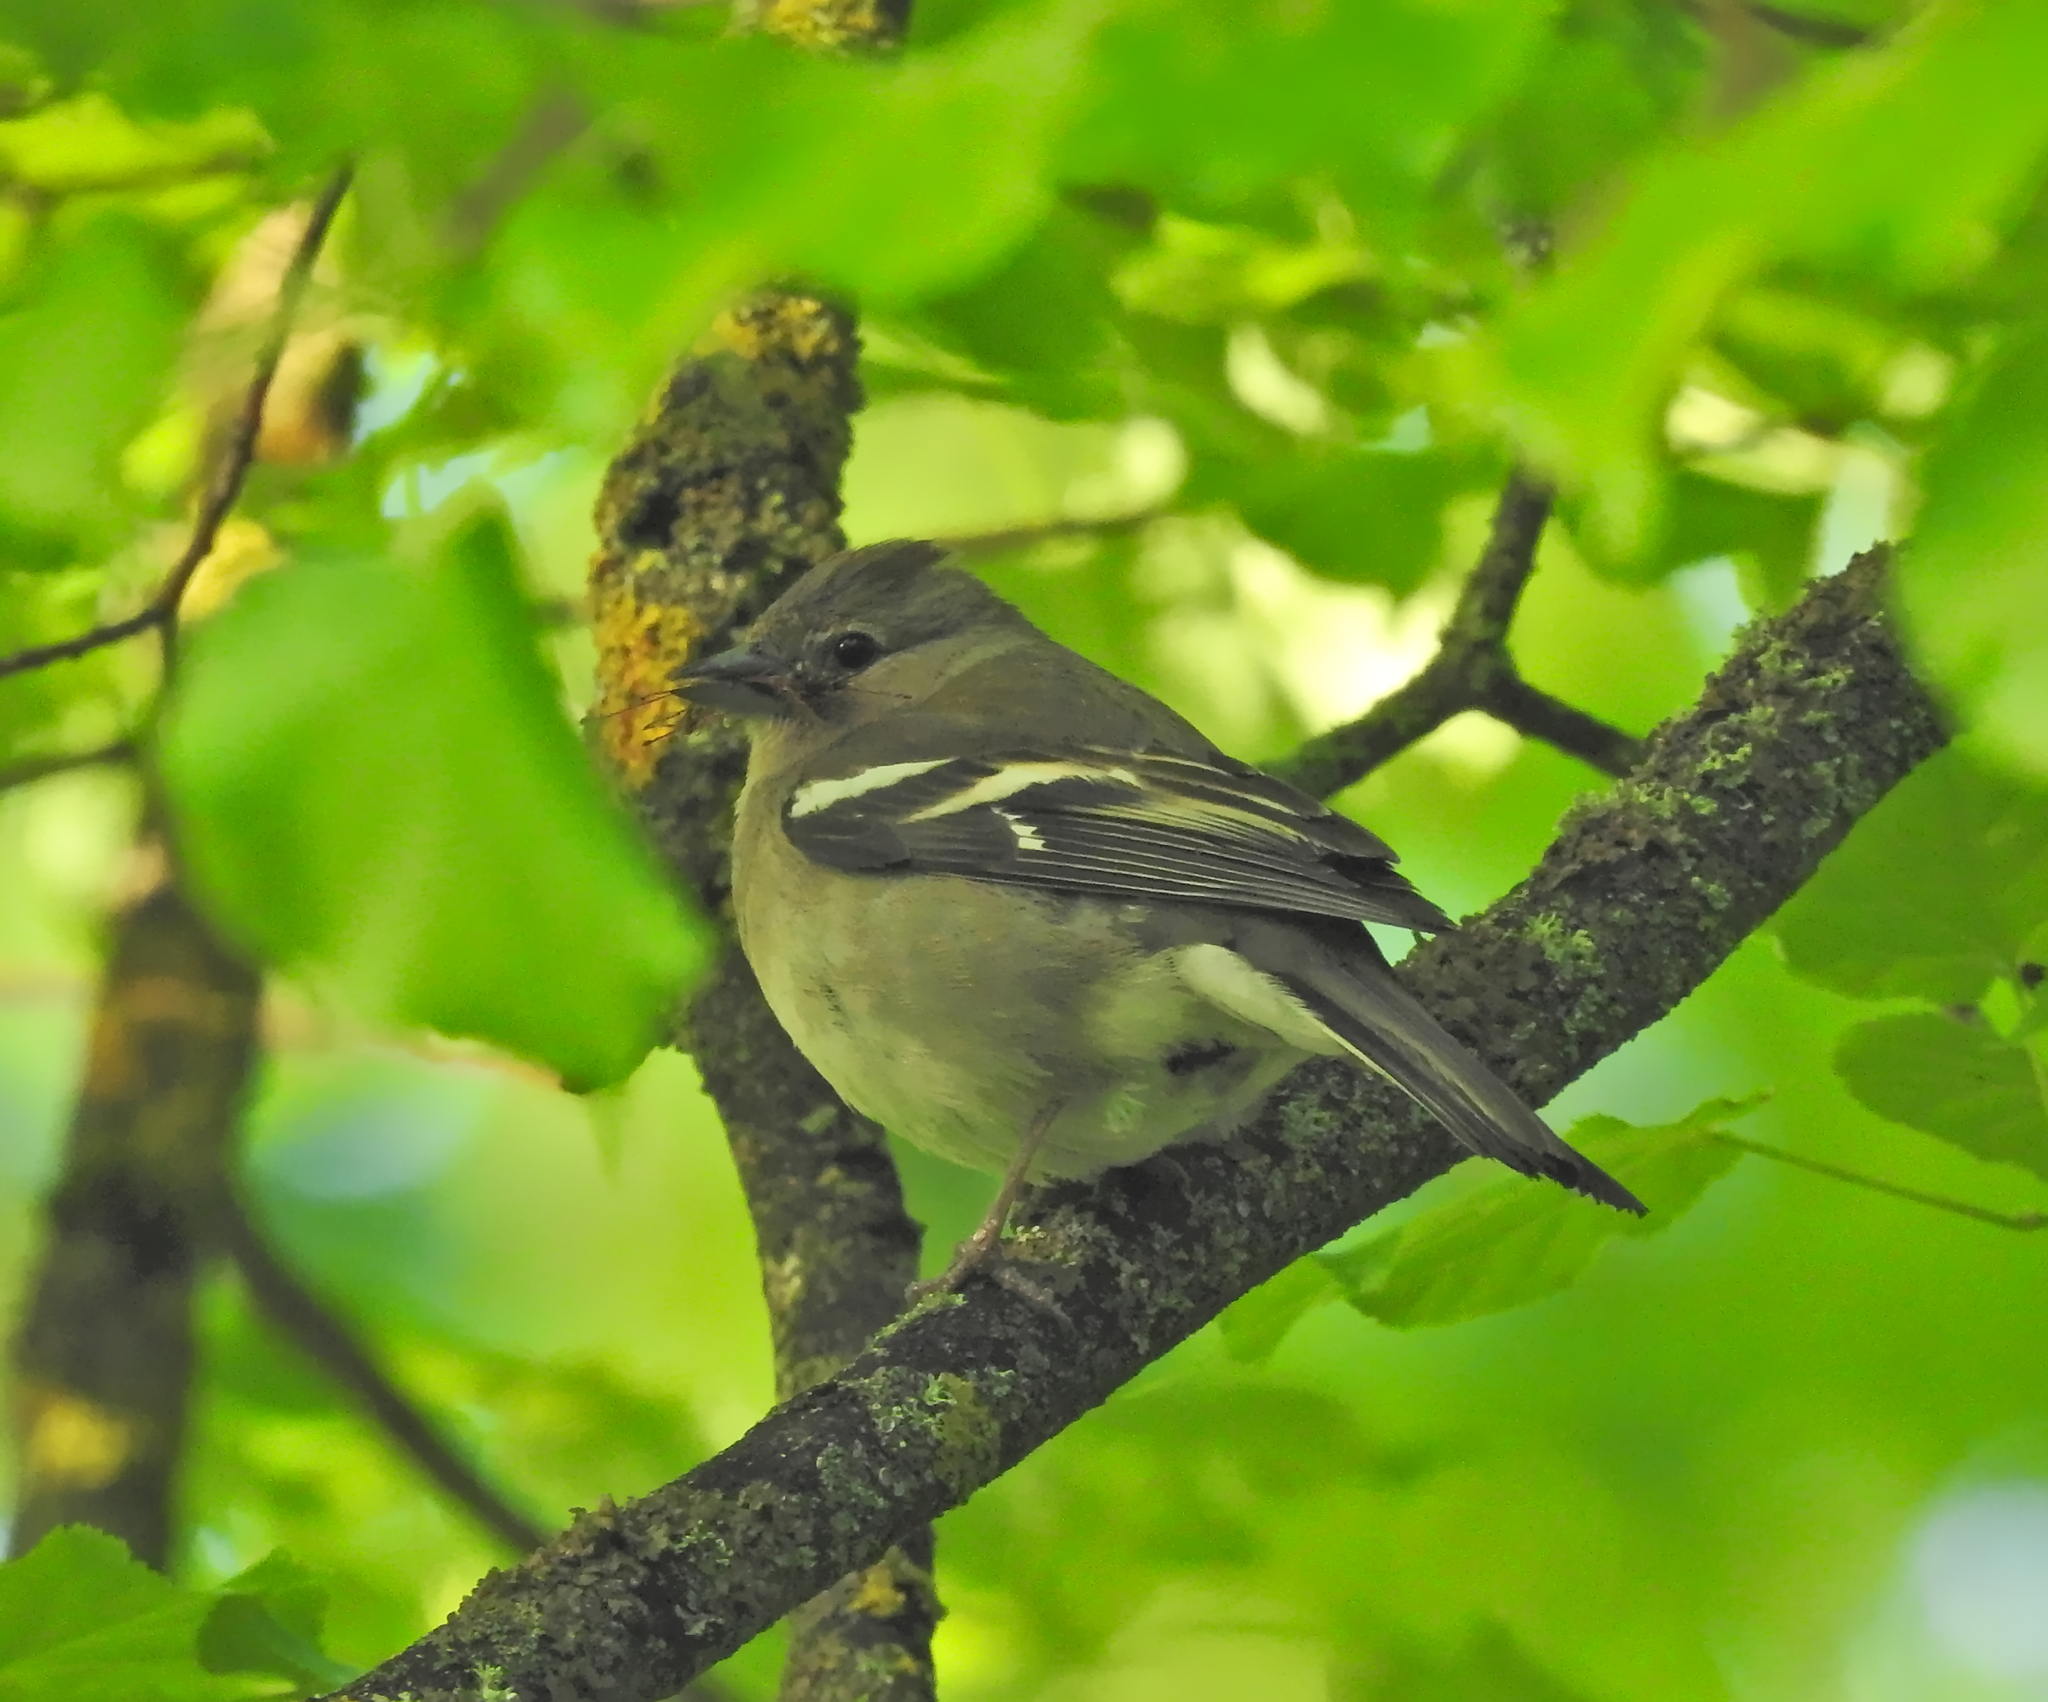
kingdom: Animalia
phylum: Chordata
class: Aves
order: Passeriformes
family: Fringillidae
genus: Fringilla
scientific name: Fringilla coelebs
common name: Common chaffinch
